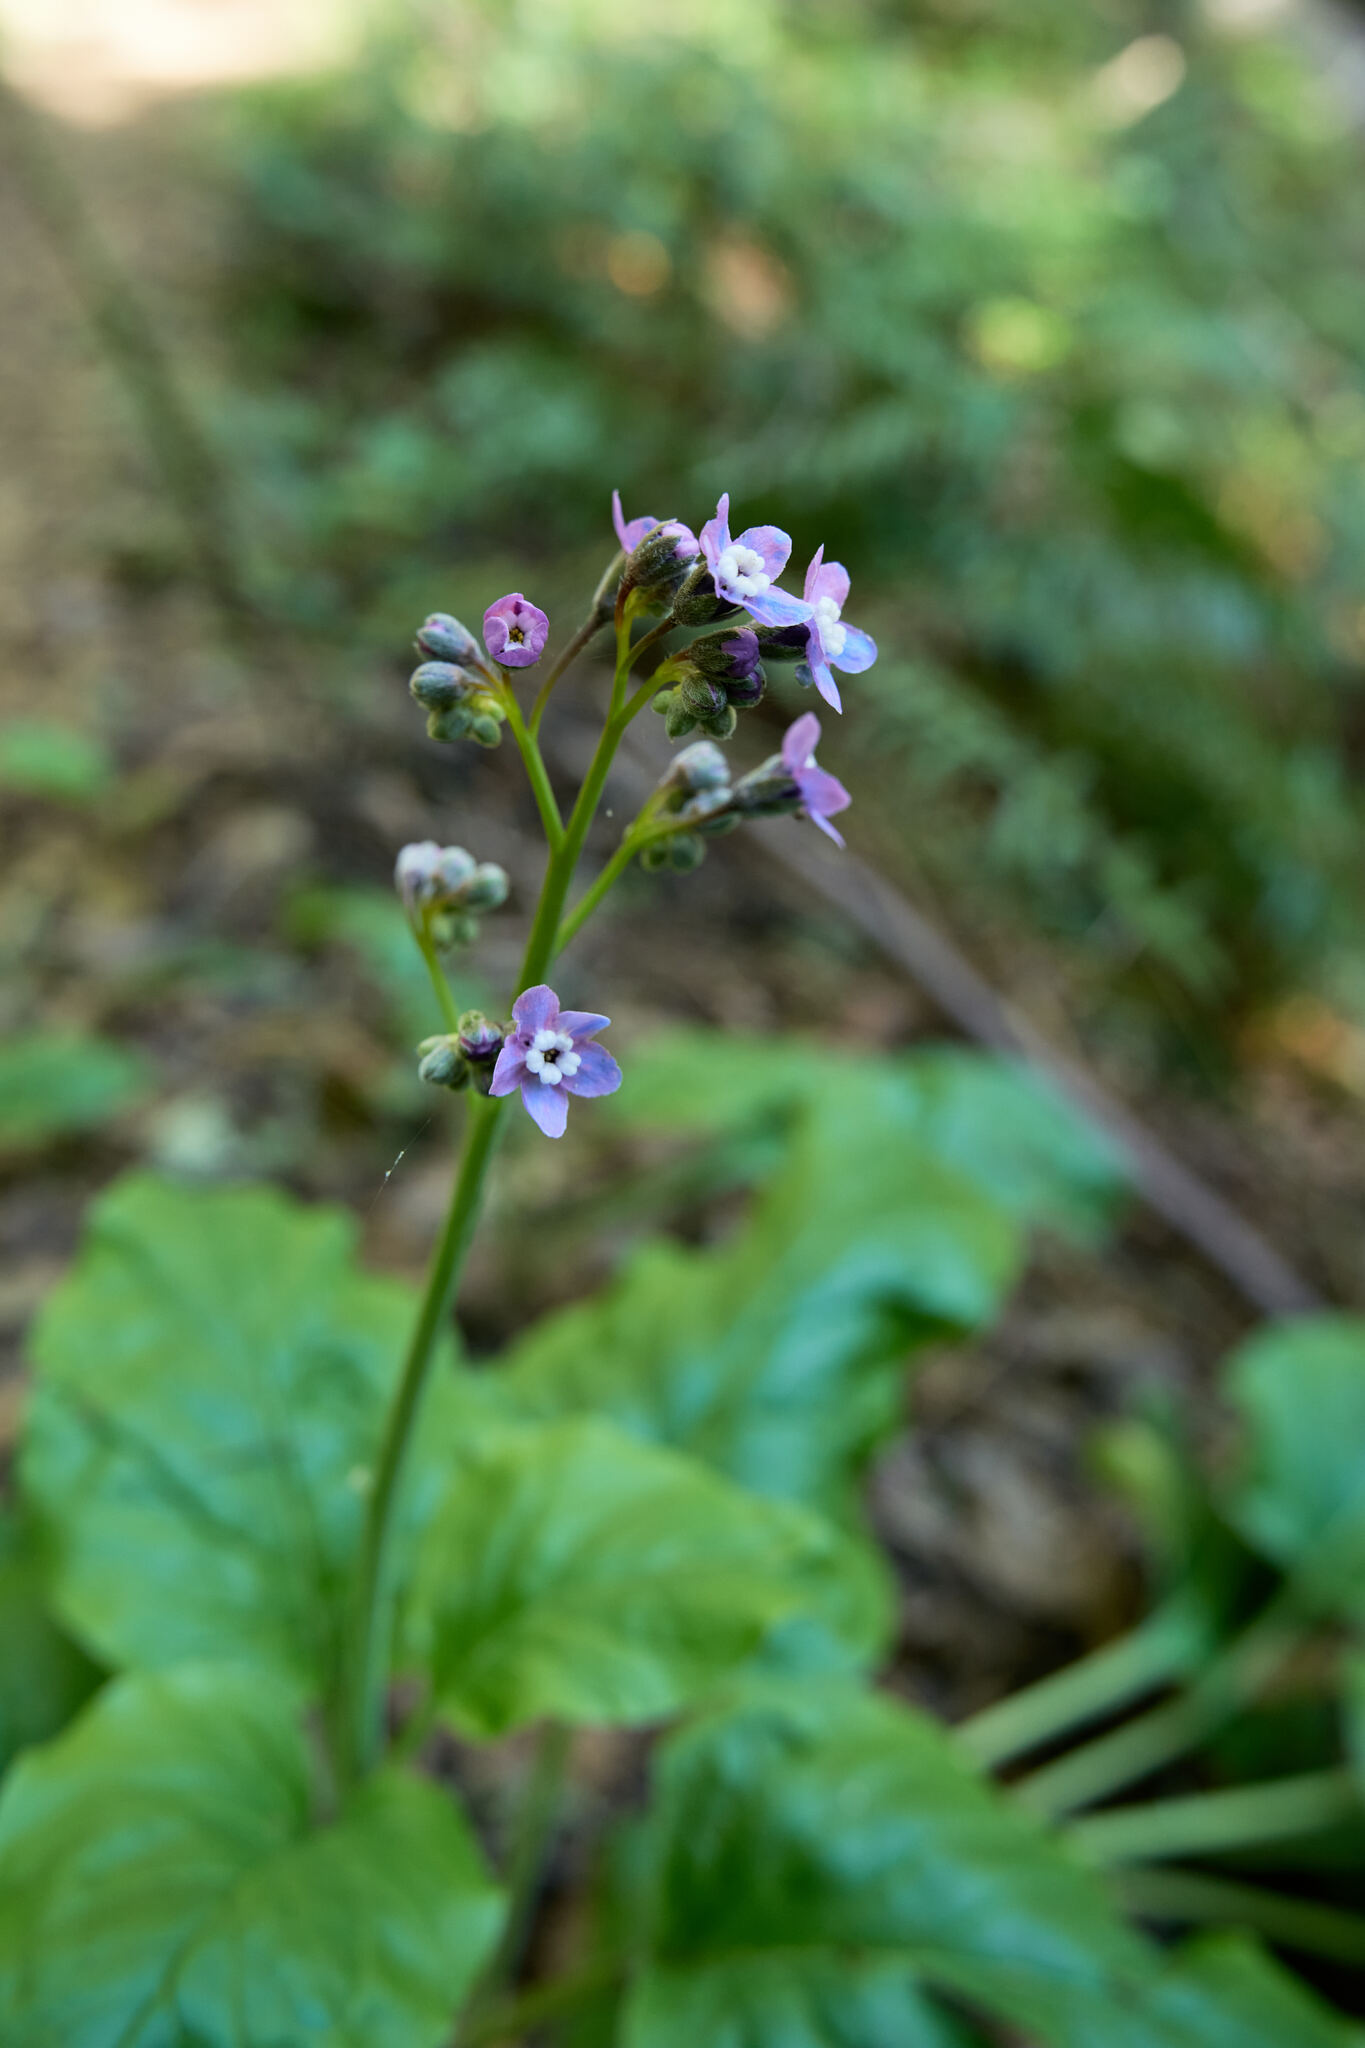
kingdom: Plantae
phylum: Tracheophyta
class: Magnoliopsida
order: Boraginales
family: Boraginaceae
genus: Adelinia
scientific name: Adelinia grande
